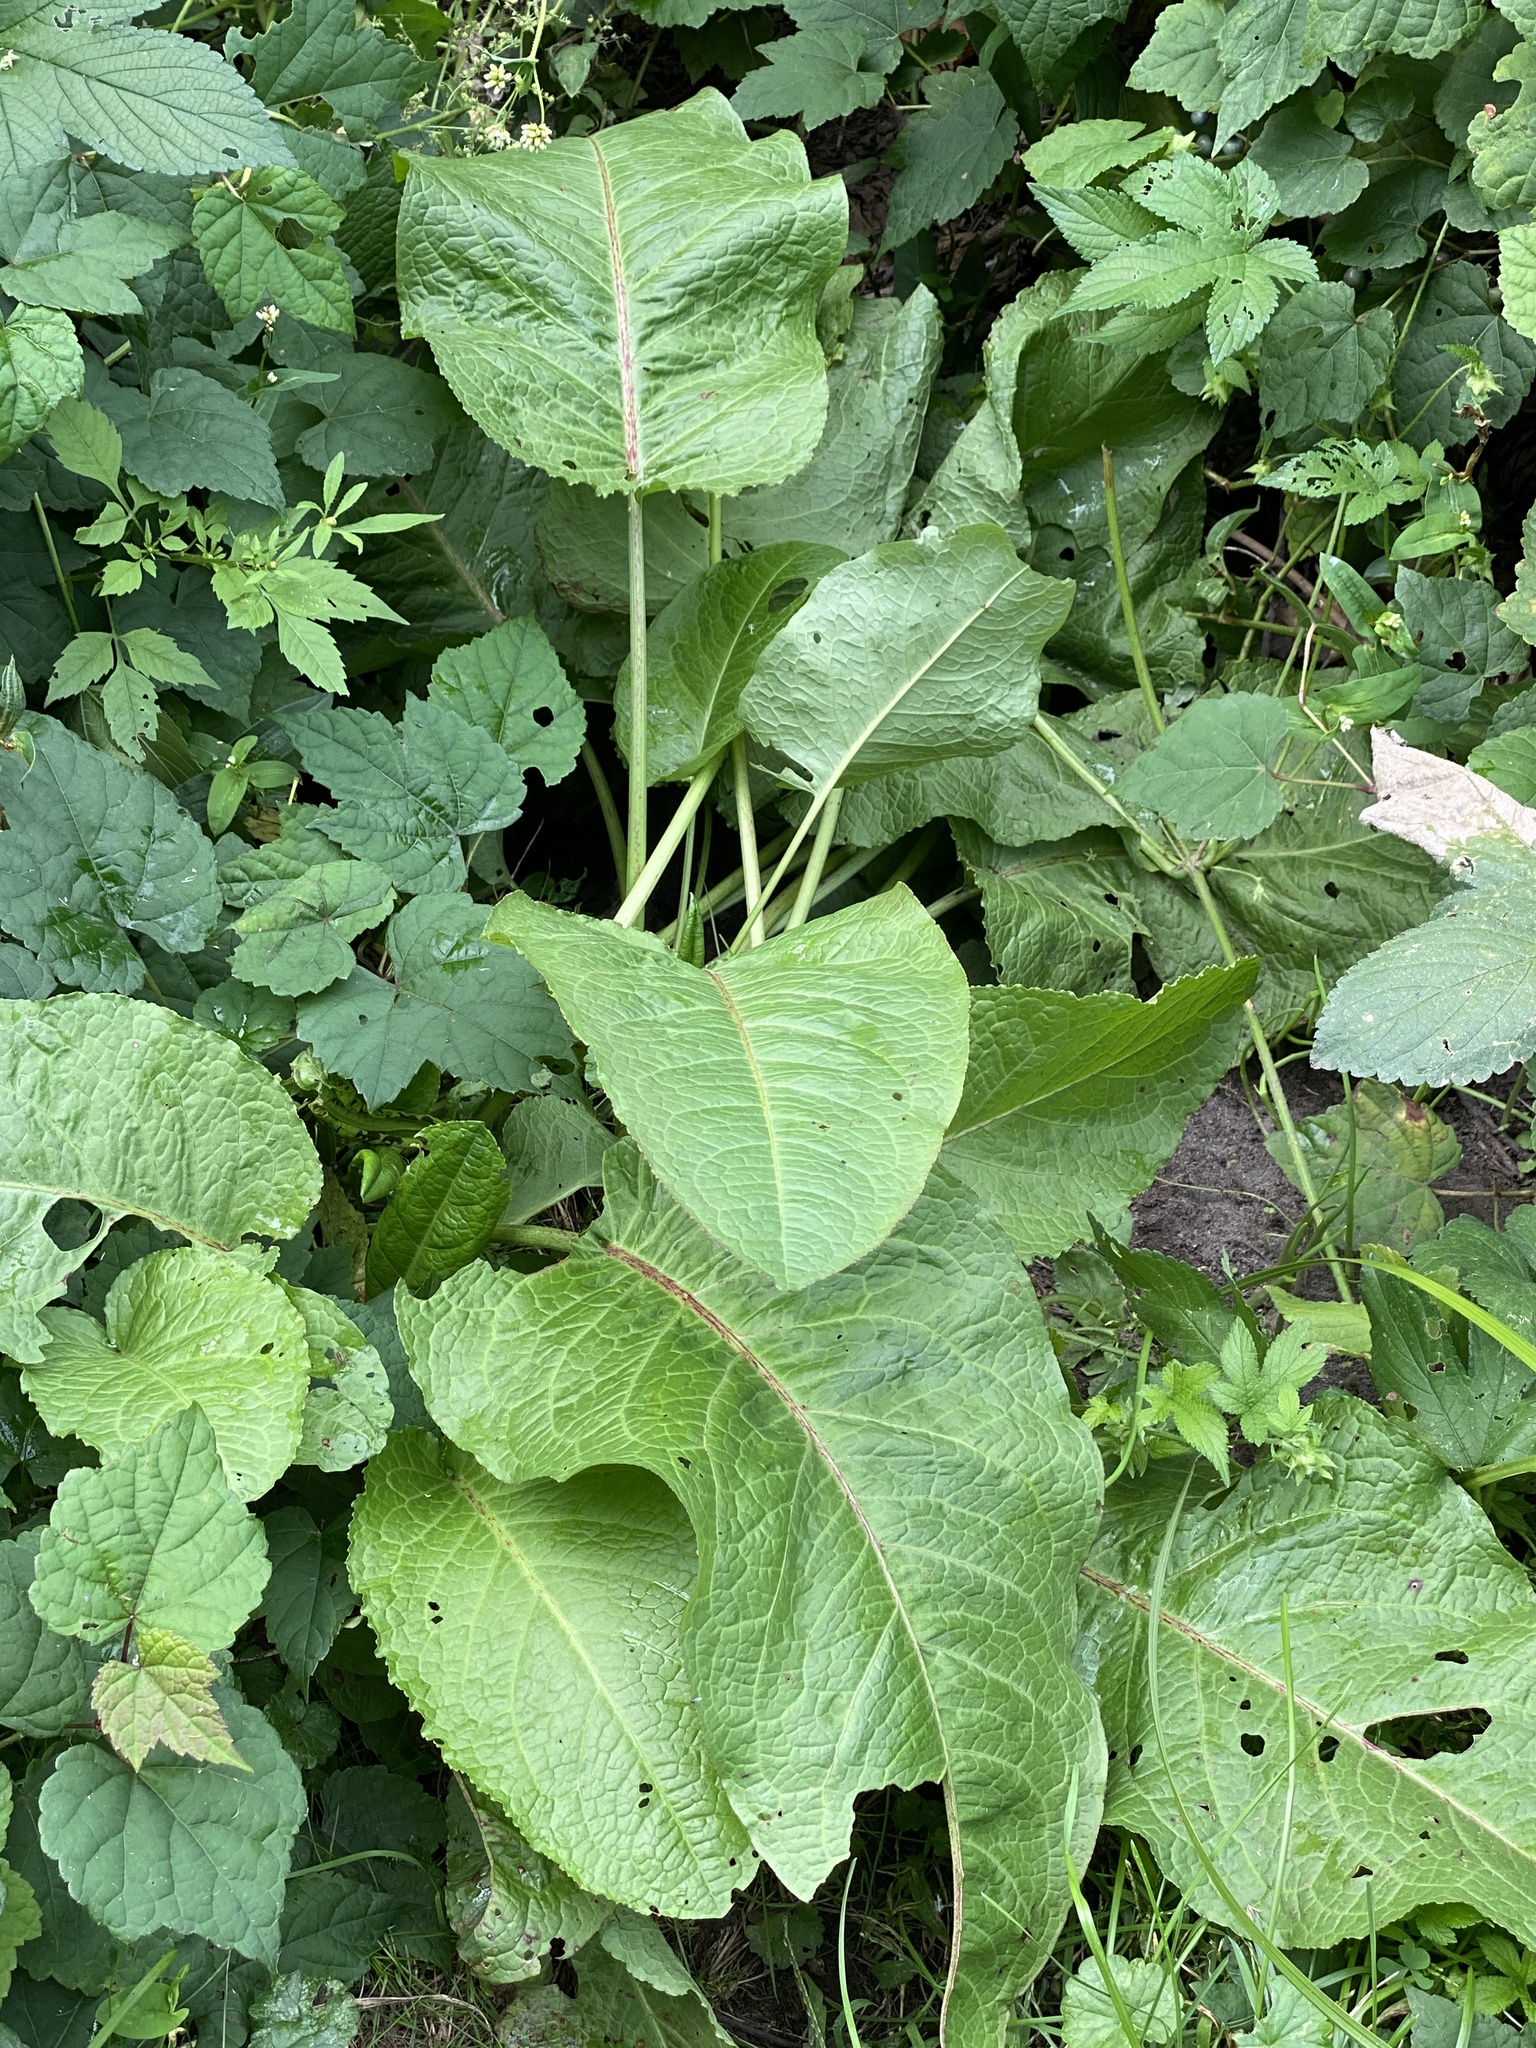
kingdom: Plantae
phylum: Tracheophyta
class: Magnoliopsida
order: Caryophyllales
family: Polygonaceae
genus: Rumex
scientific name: Rumex obtusifolius
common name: Bitter dock
